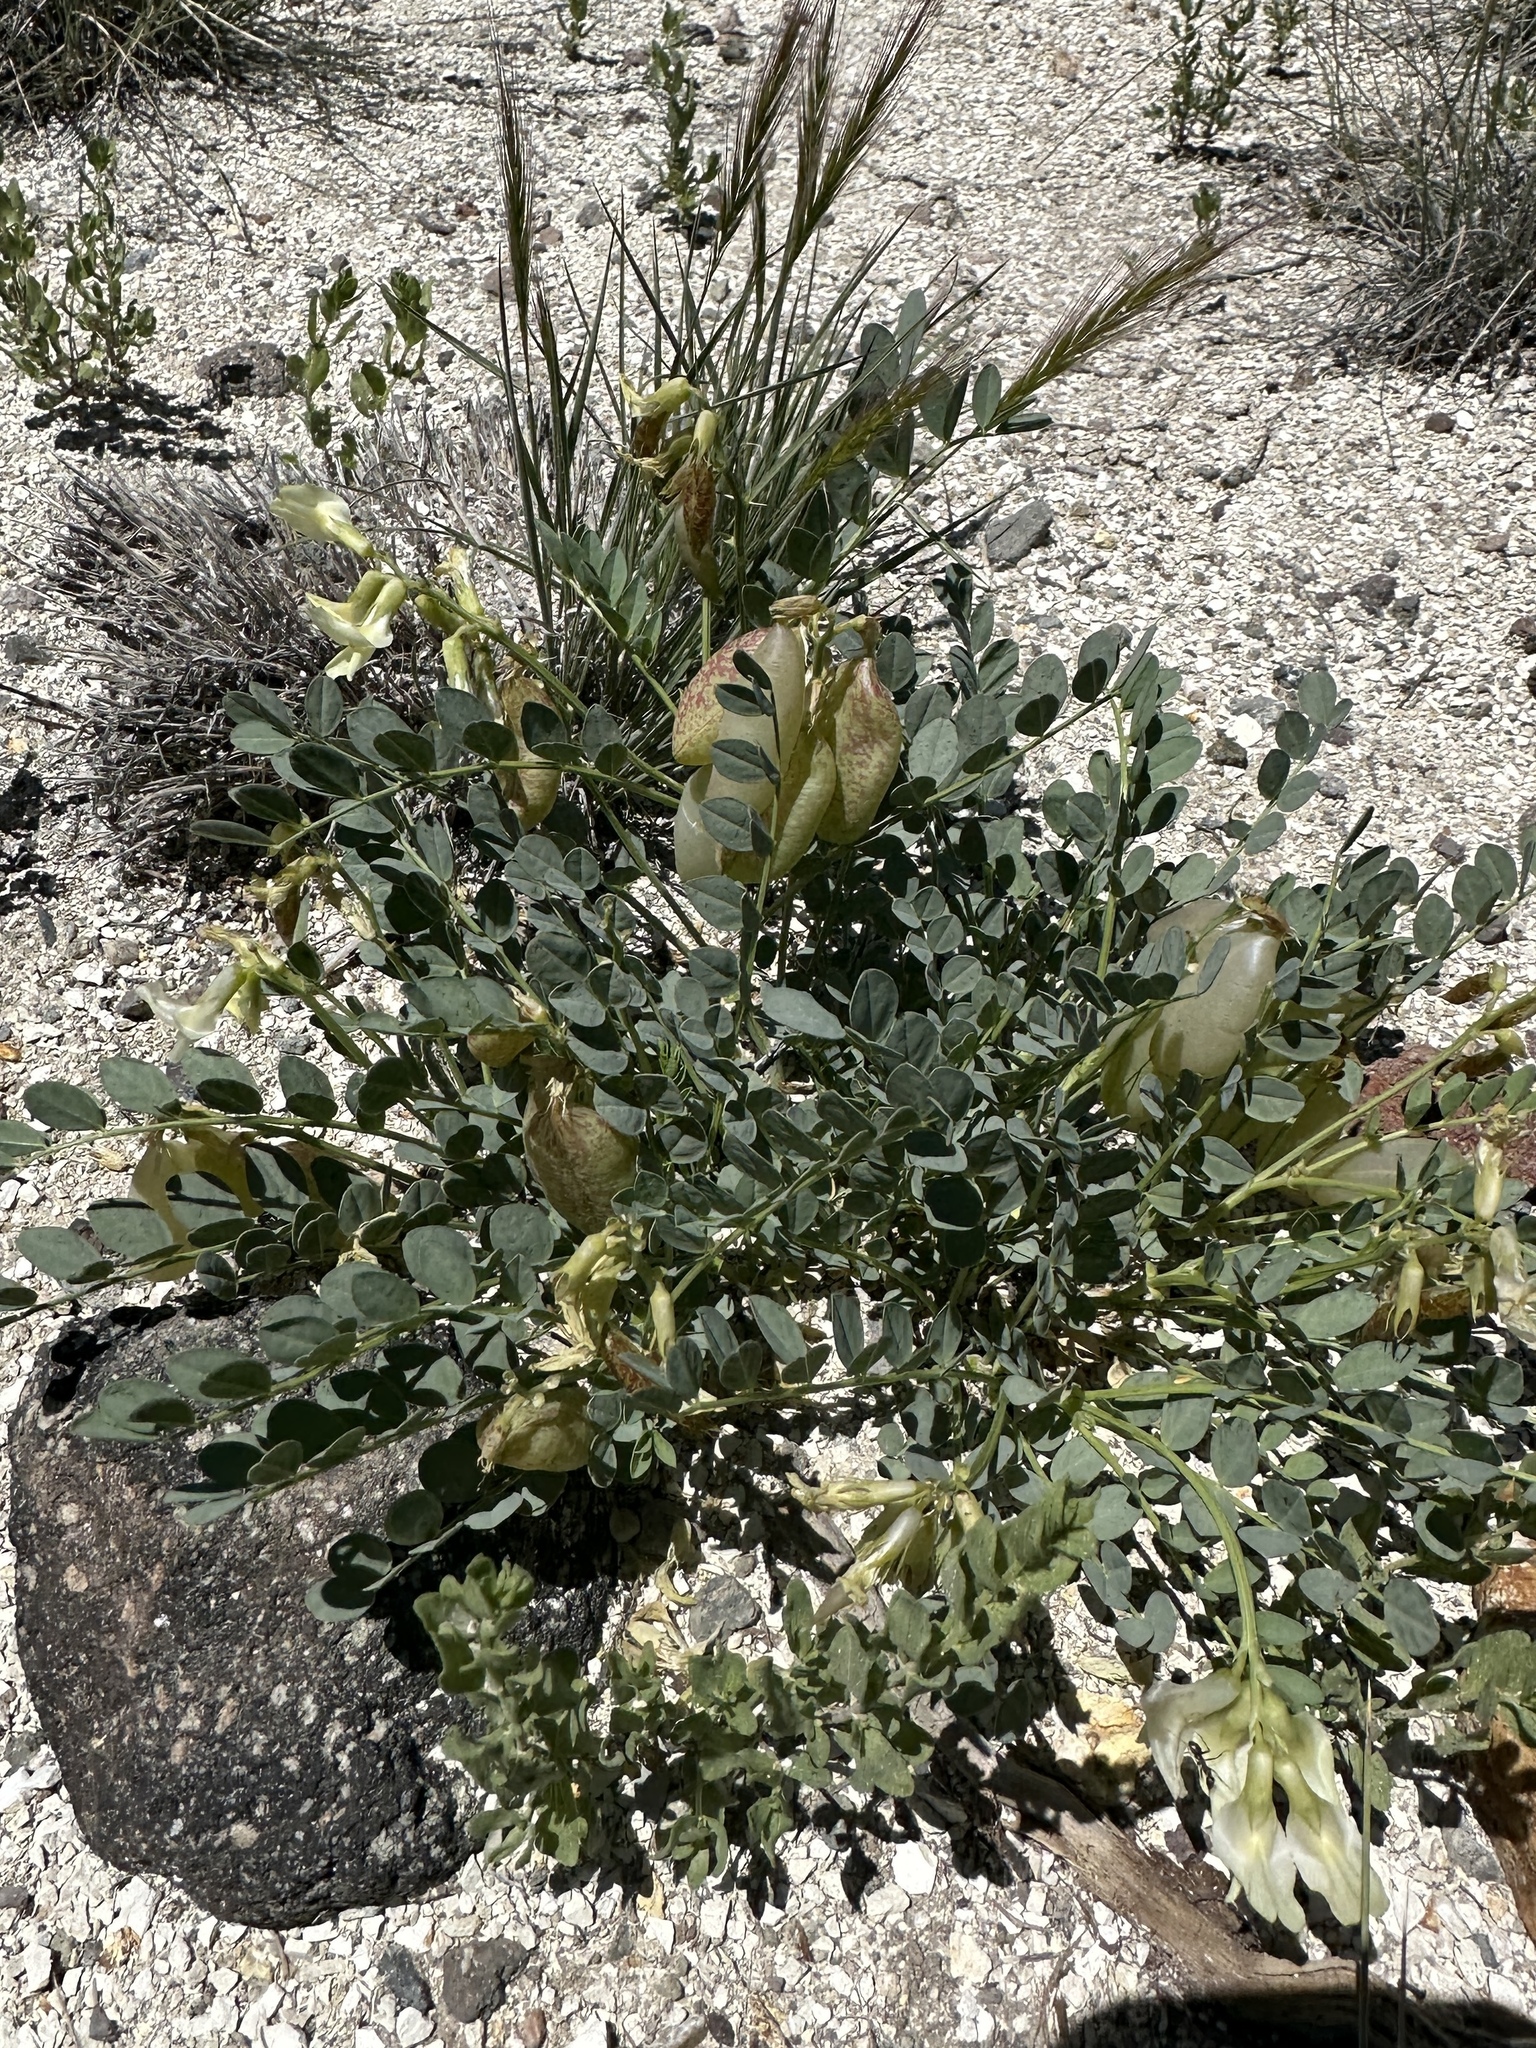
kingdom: Plantae
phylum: Tracheophyta
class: Magnoliopsida
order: Fabales
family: Fabaceae
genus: Astragalus
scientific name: Astragalus oophorus
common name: Egg milkvetch
